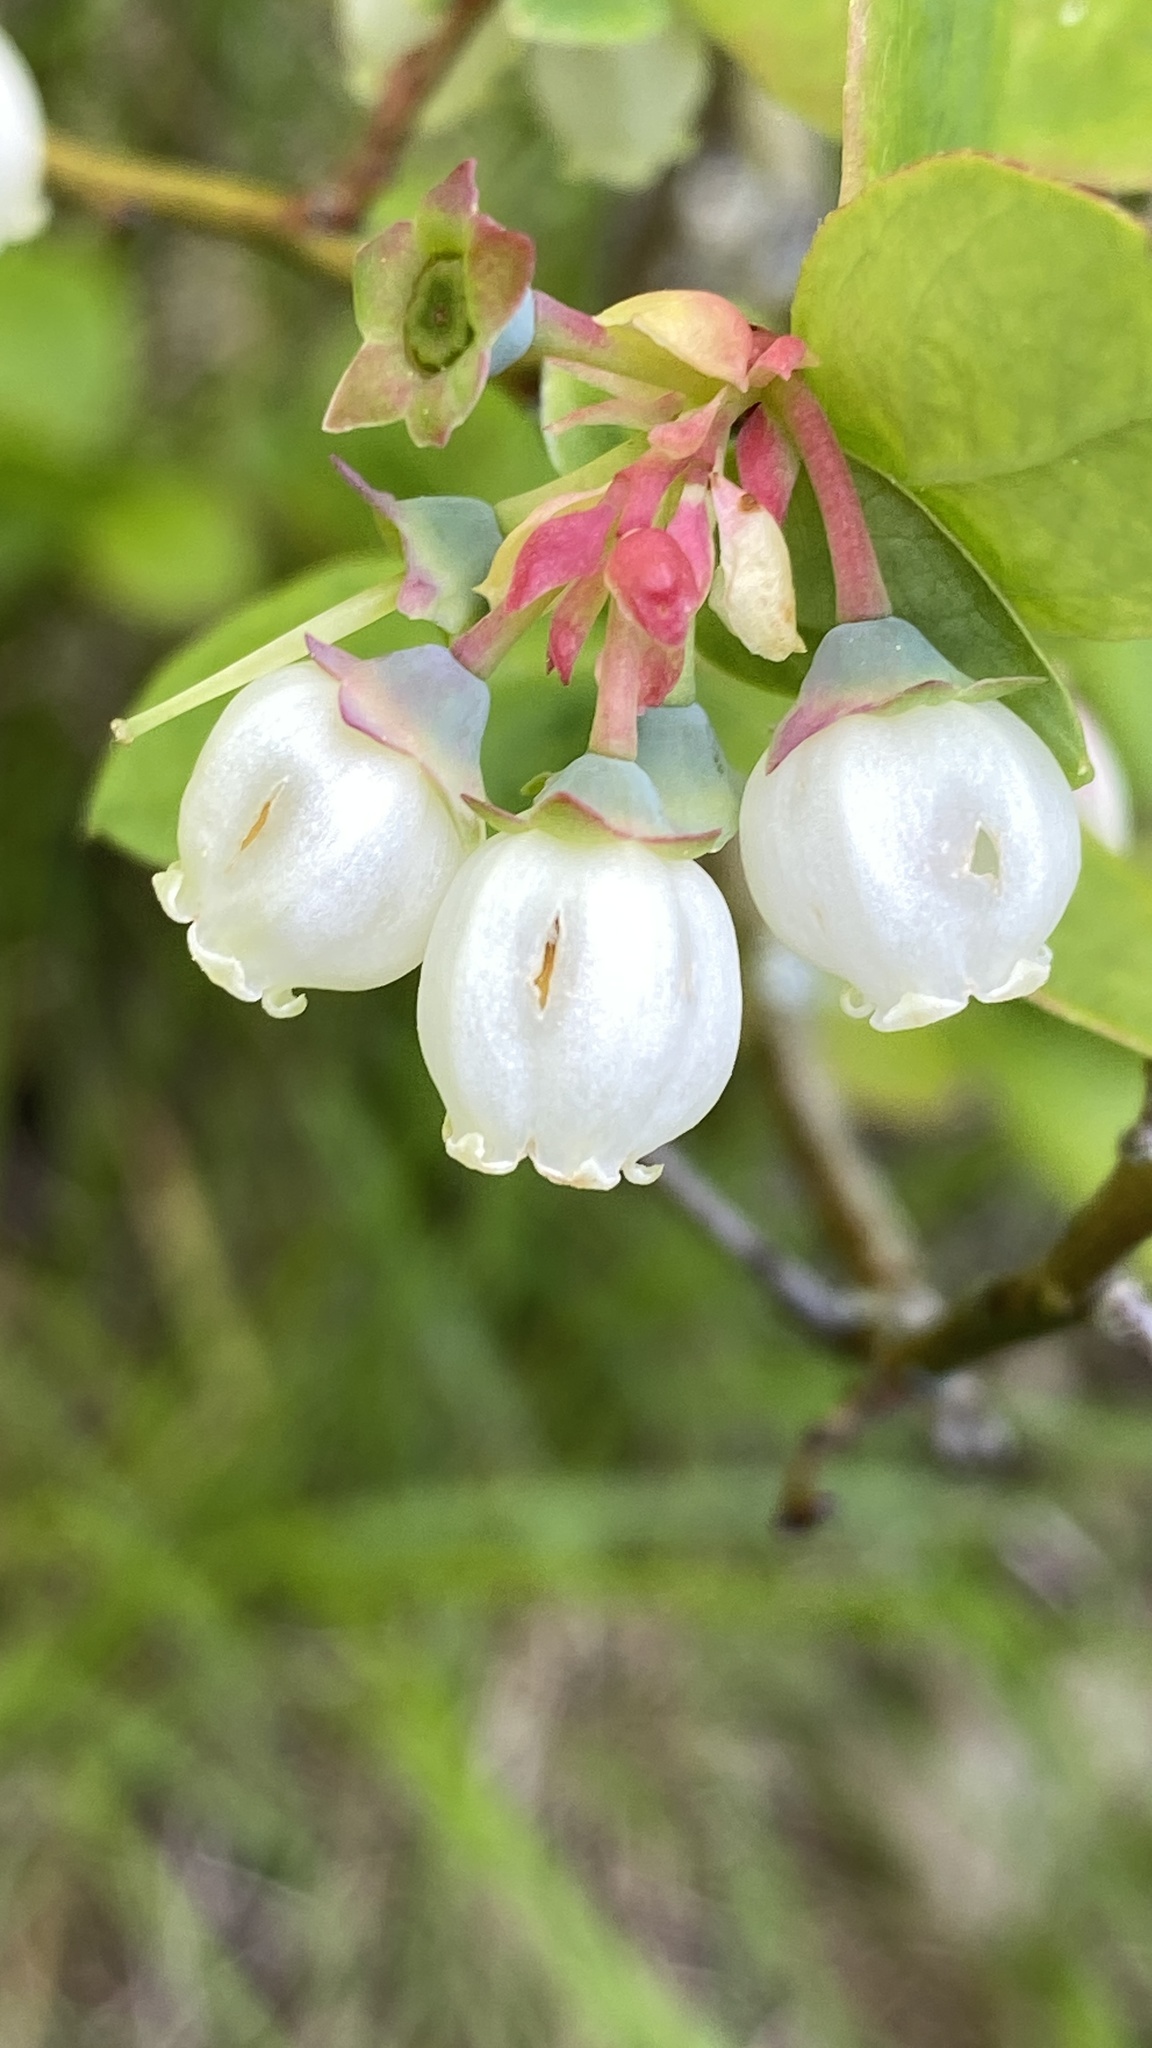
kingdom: Plantae
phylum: Tracheophyta
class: Magnoliopsida
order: Ericales
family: Ericaceae
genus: Vaccinium
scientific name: Vaccinium corymbosum
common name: Blueberry
